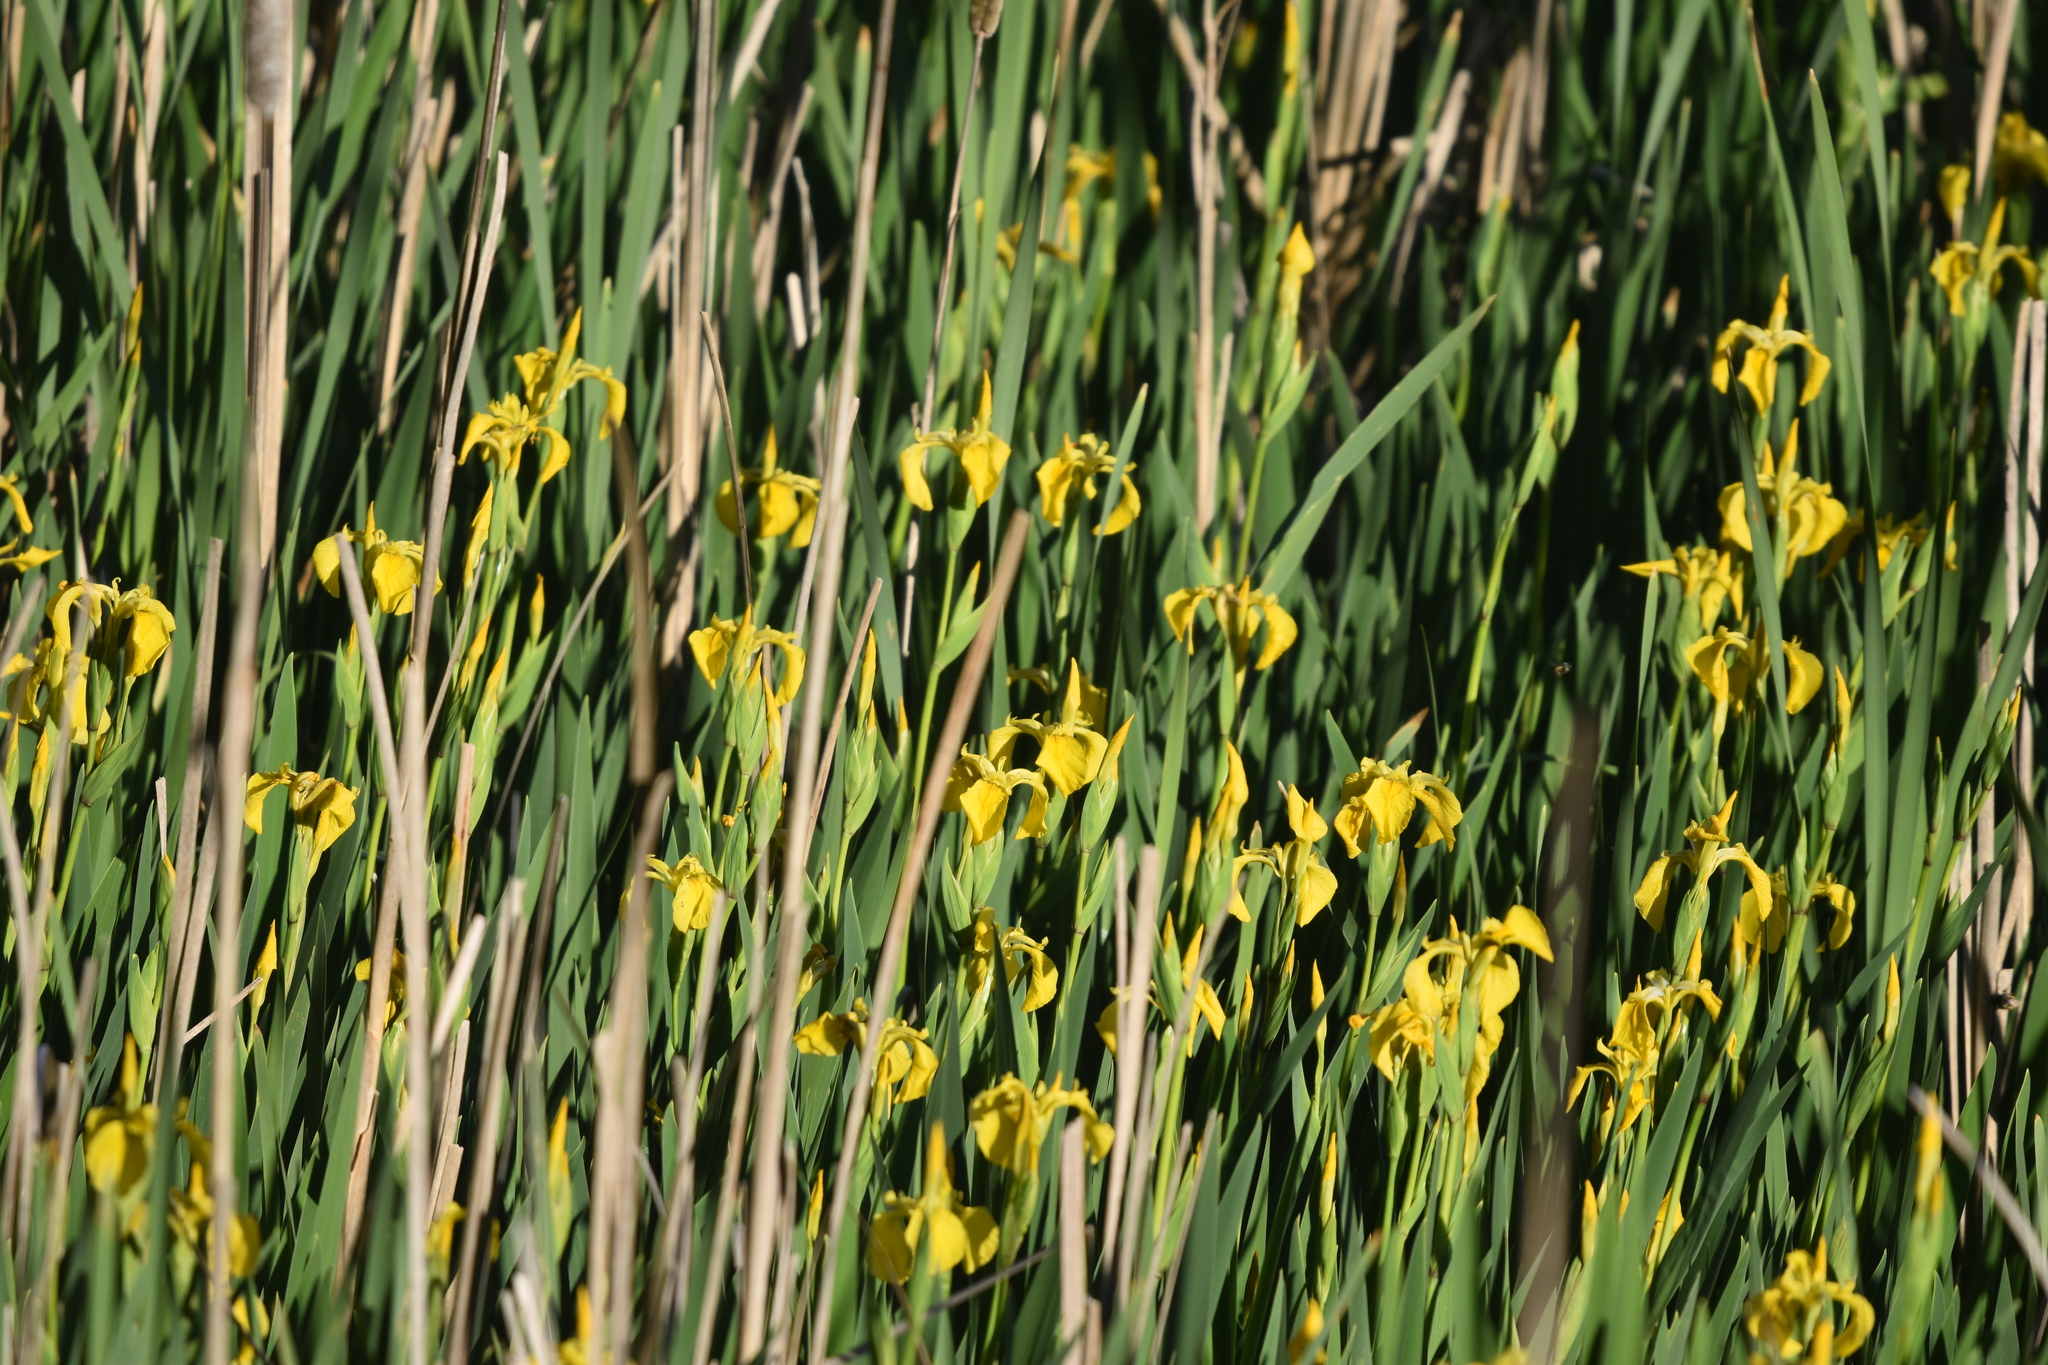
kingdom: Plantae
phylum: Tracheophyta
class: Liliopsida
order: Asparagales
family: Iridaceae
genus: Iris
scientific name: Iris pseudacorus
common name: Yellow flag
